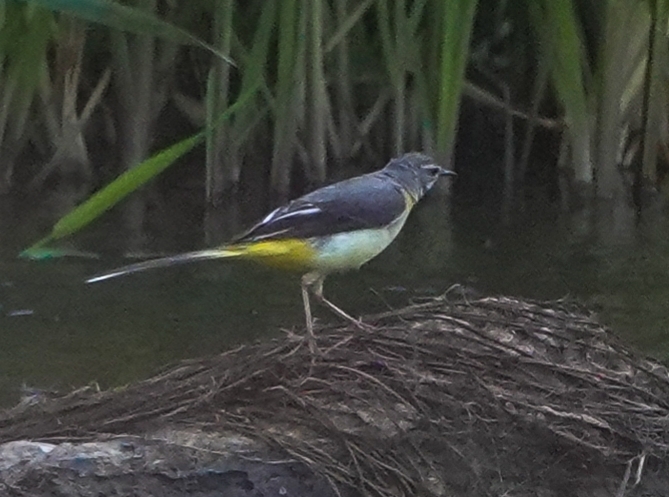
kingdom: Animalia
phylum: Chordata
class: Aves
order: Passeriformes
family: Motacillidae
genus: Motacilla
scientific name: Motacilla cinerea
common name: Grey wagtail
